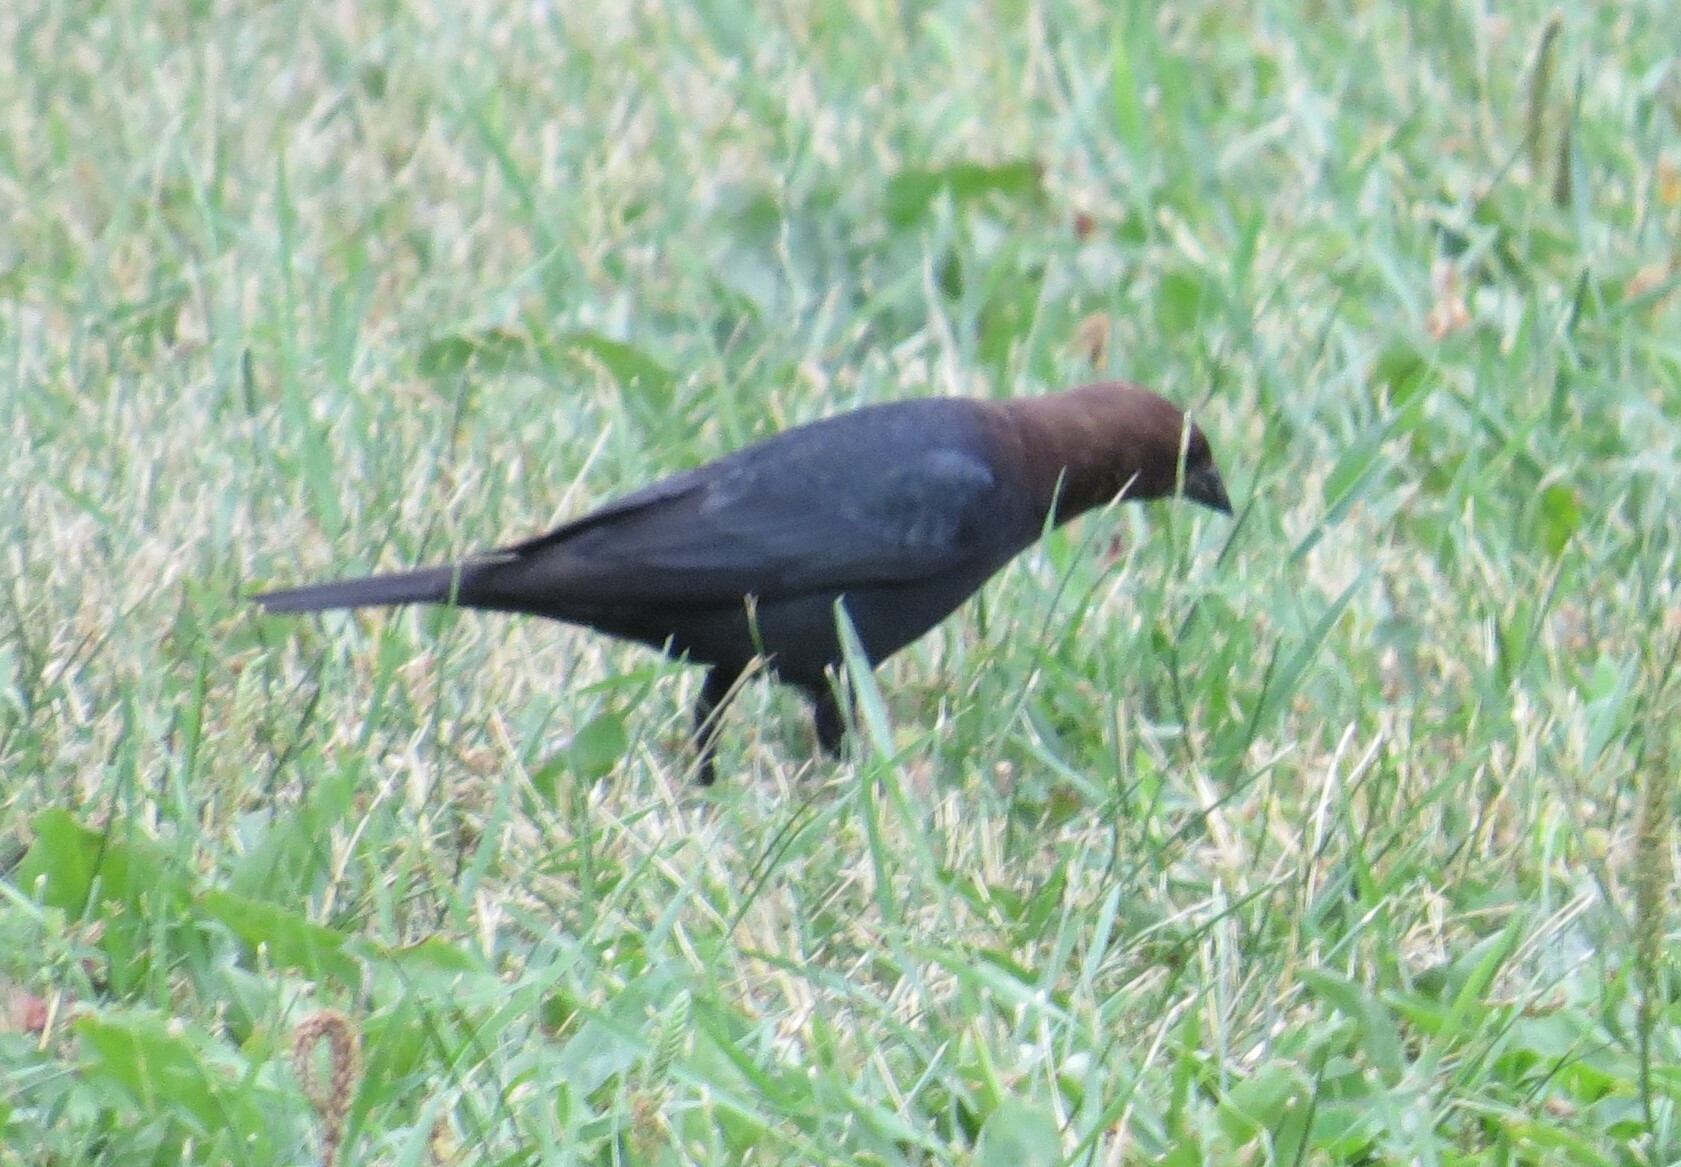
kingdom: Animalia
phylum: Chordata
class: Aves
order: Passeriformes
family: Icteridae
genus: Molothrus
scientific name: Molothrus ater
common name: Brown-headed cowbird
